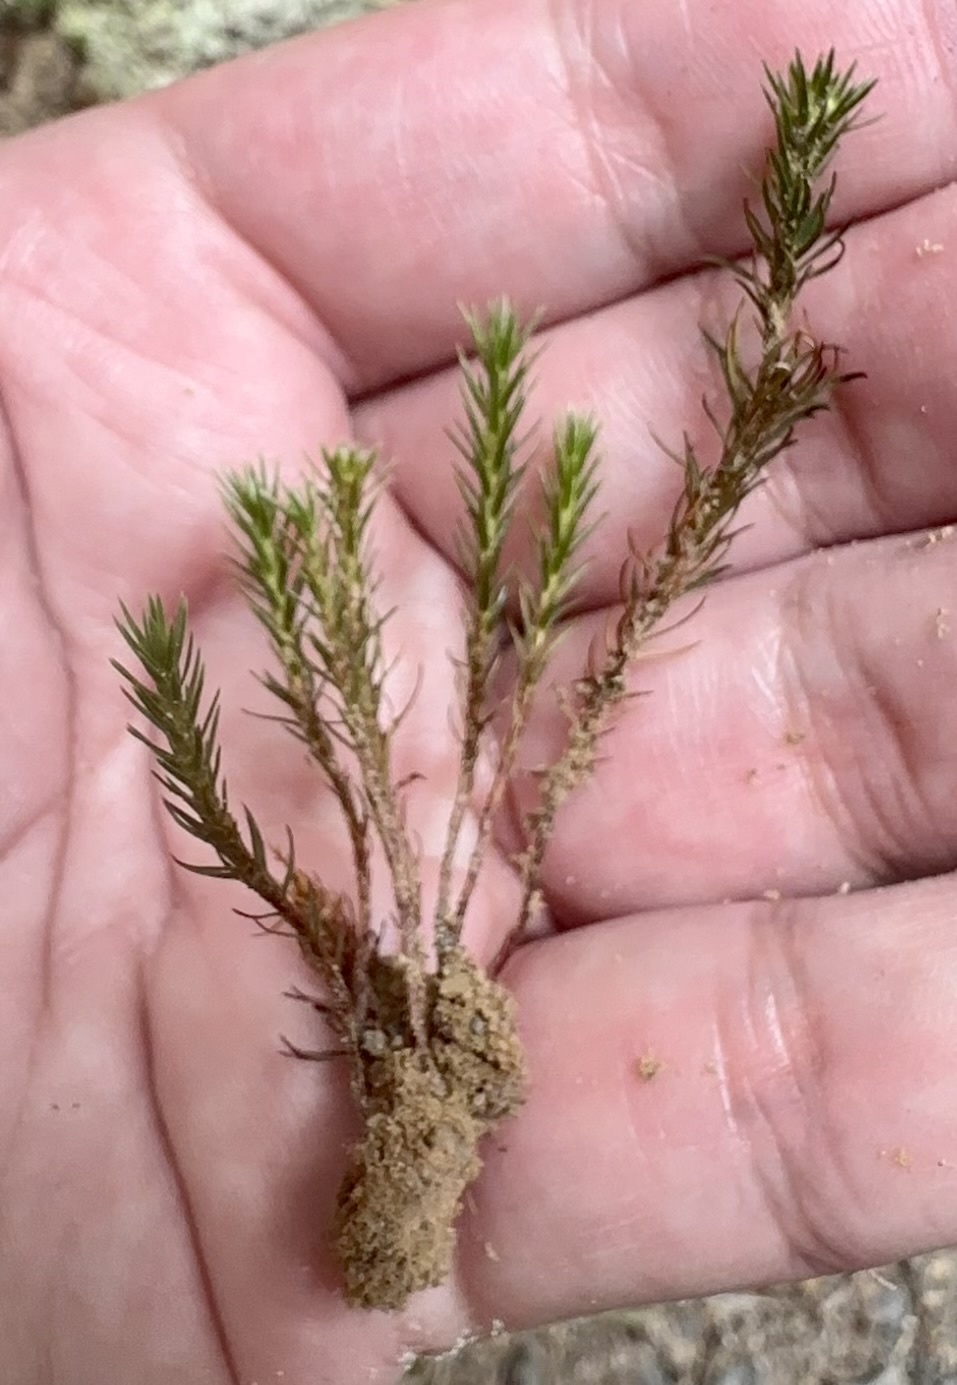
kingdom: Plantae
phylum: Bryophyta
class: Polytrichopsida
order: Polytrichales
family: Polytrichaceae
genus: Polytrichadelphus
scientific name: Polytrichadelphus magellanicus
